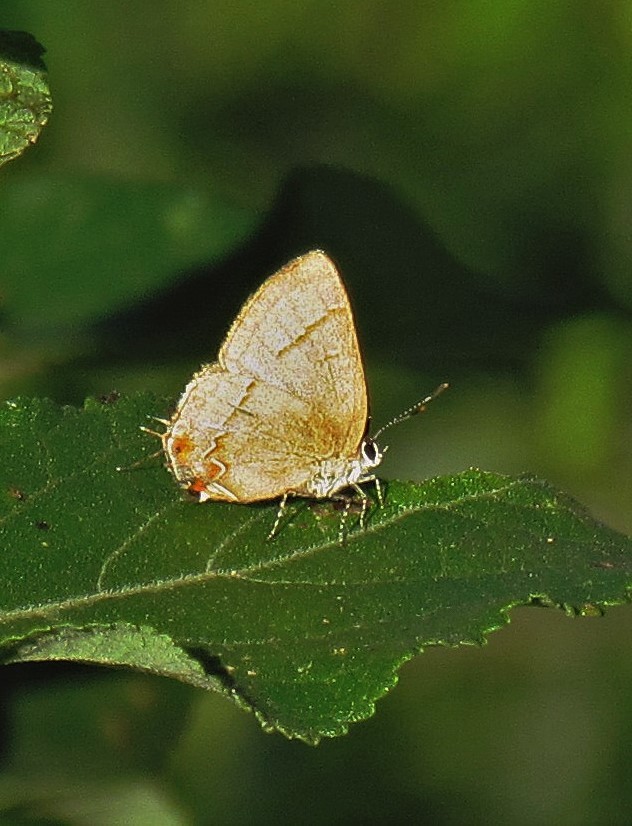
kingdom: Animalia
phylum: Arthropoda
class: Insecta
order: Lepidoptera
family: Lycaenidae
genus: Calycopis
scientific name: Calycopis caulonia
